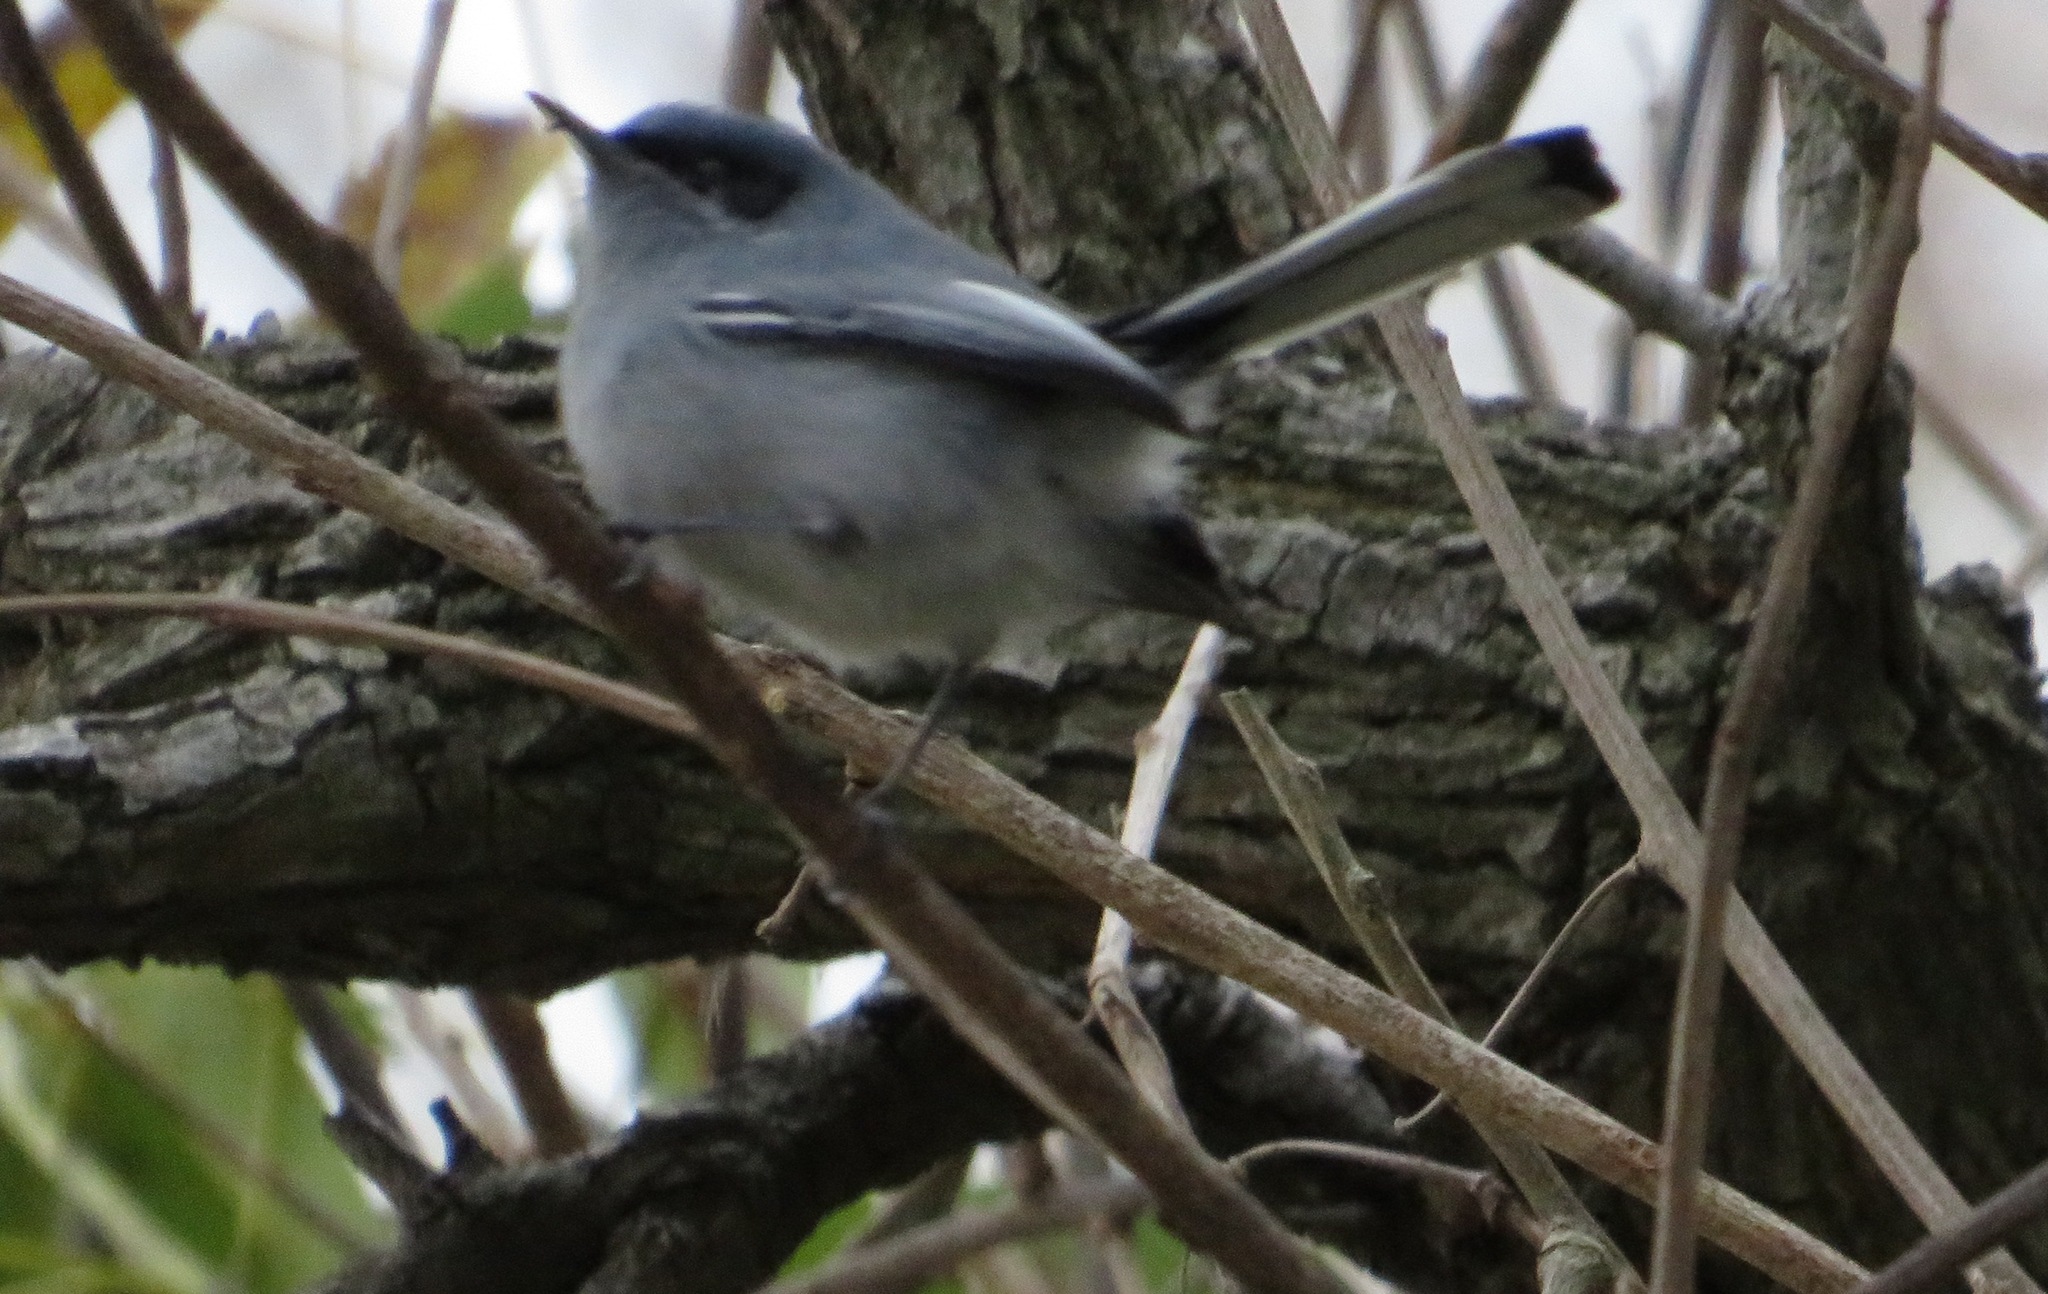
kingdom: Animalia
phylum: Chordata
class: Aves
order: Passeriformes
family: Polioptilidae
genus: Polioptila
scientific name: Polioptila dumicola
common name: Masked gnatcatcher
